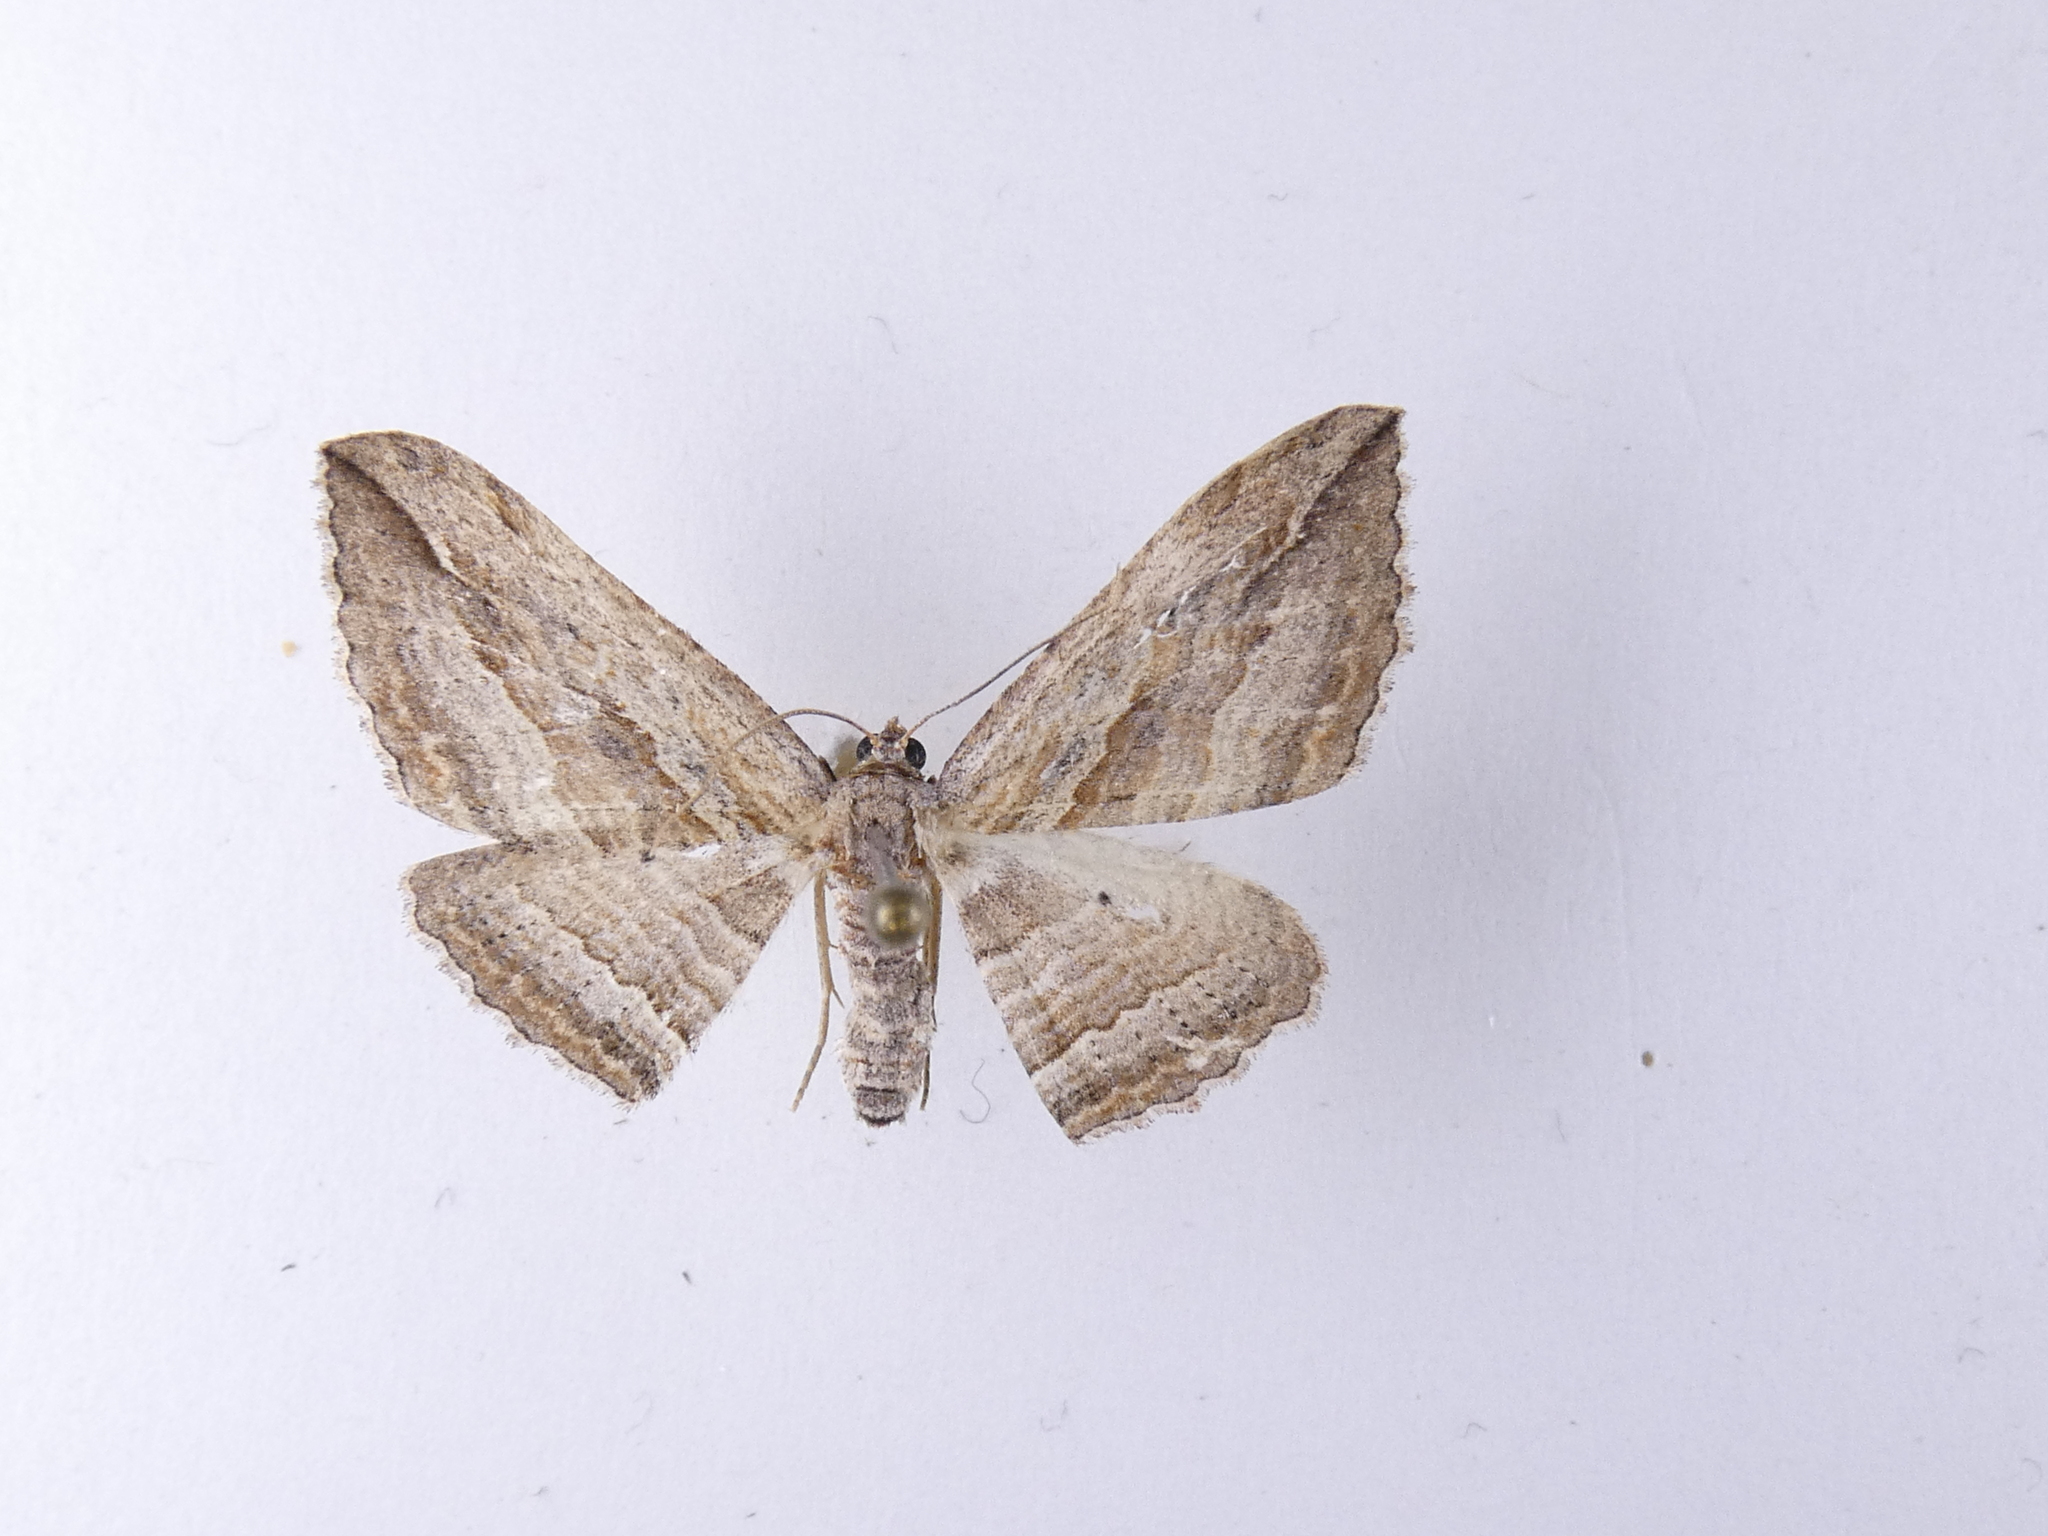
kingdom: Animalia
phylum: Arthropoda
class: Insecta
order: Lepidoptera
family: Geometridae
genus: Austrocidaria
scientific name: Austrocidaria gobiata
